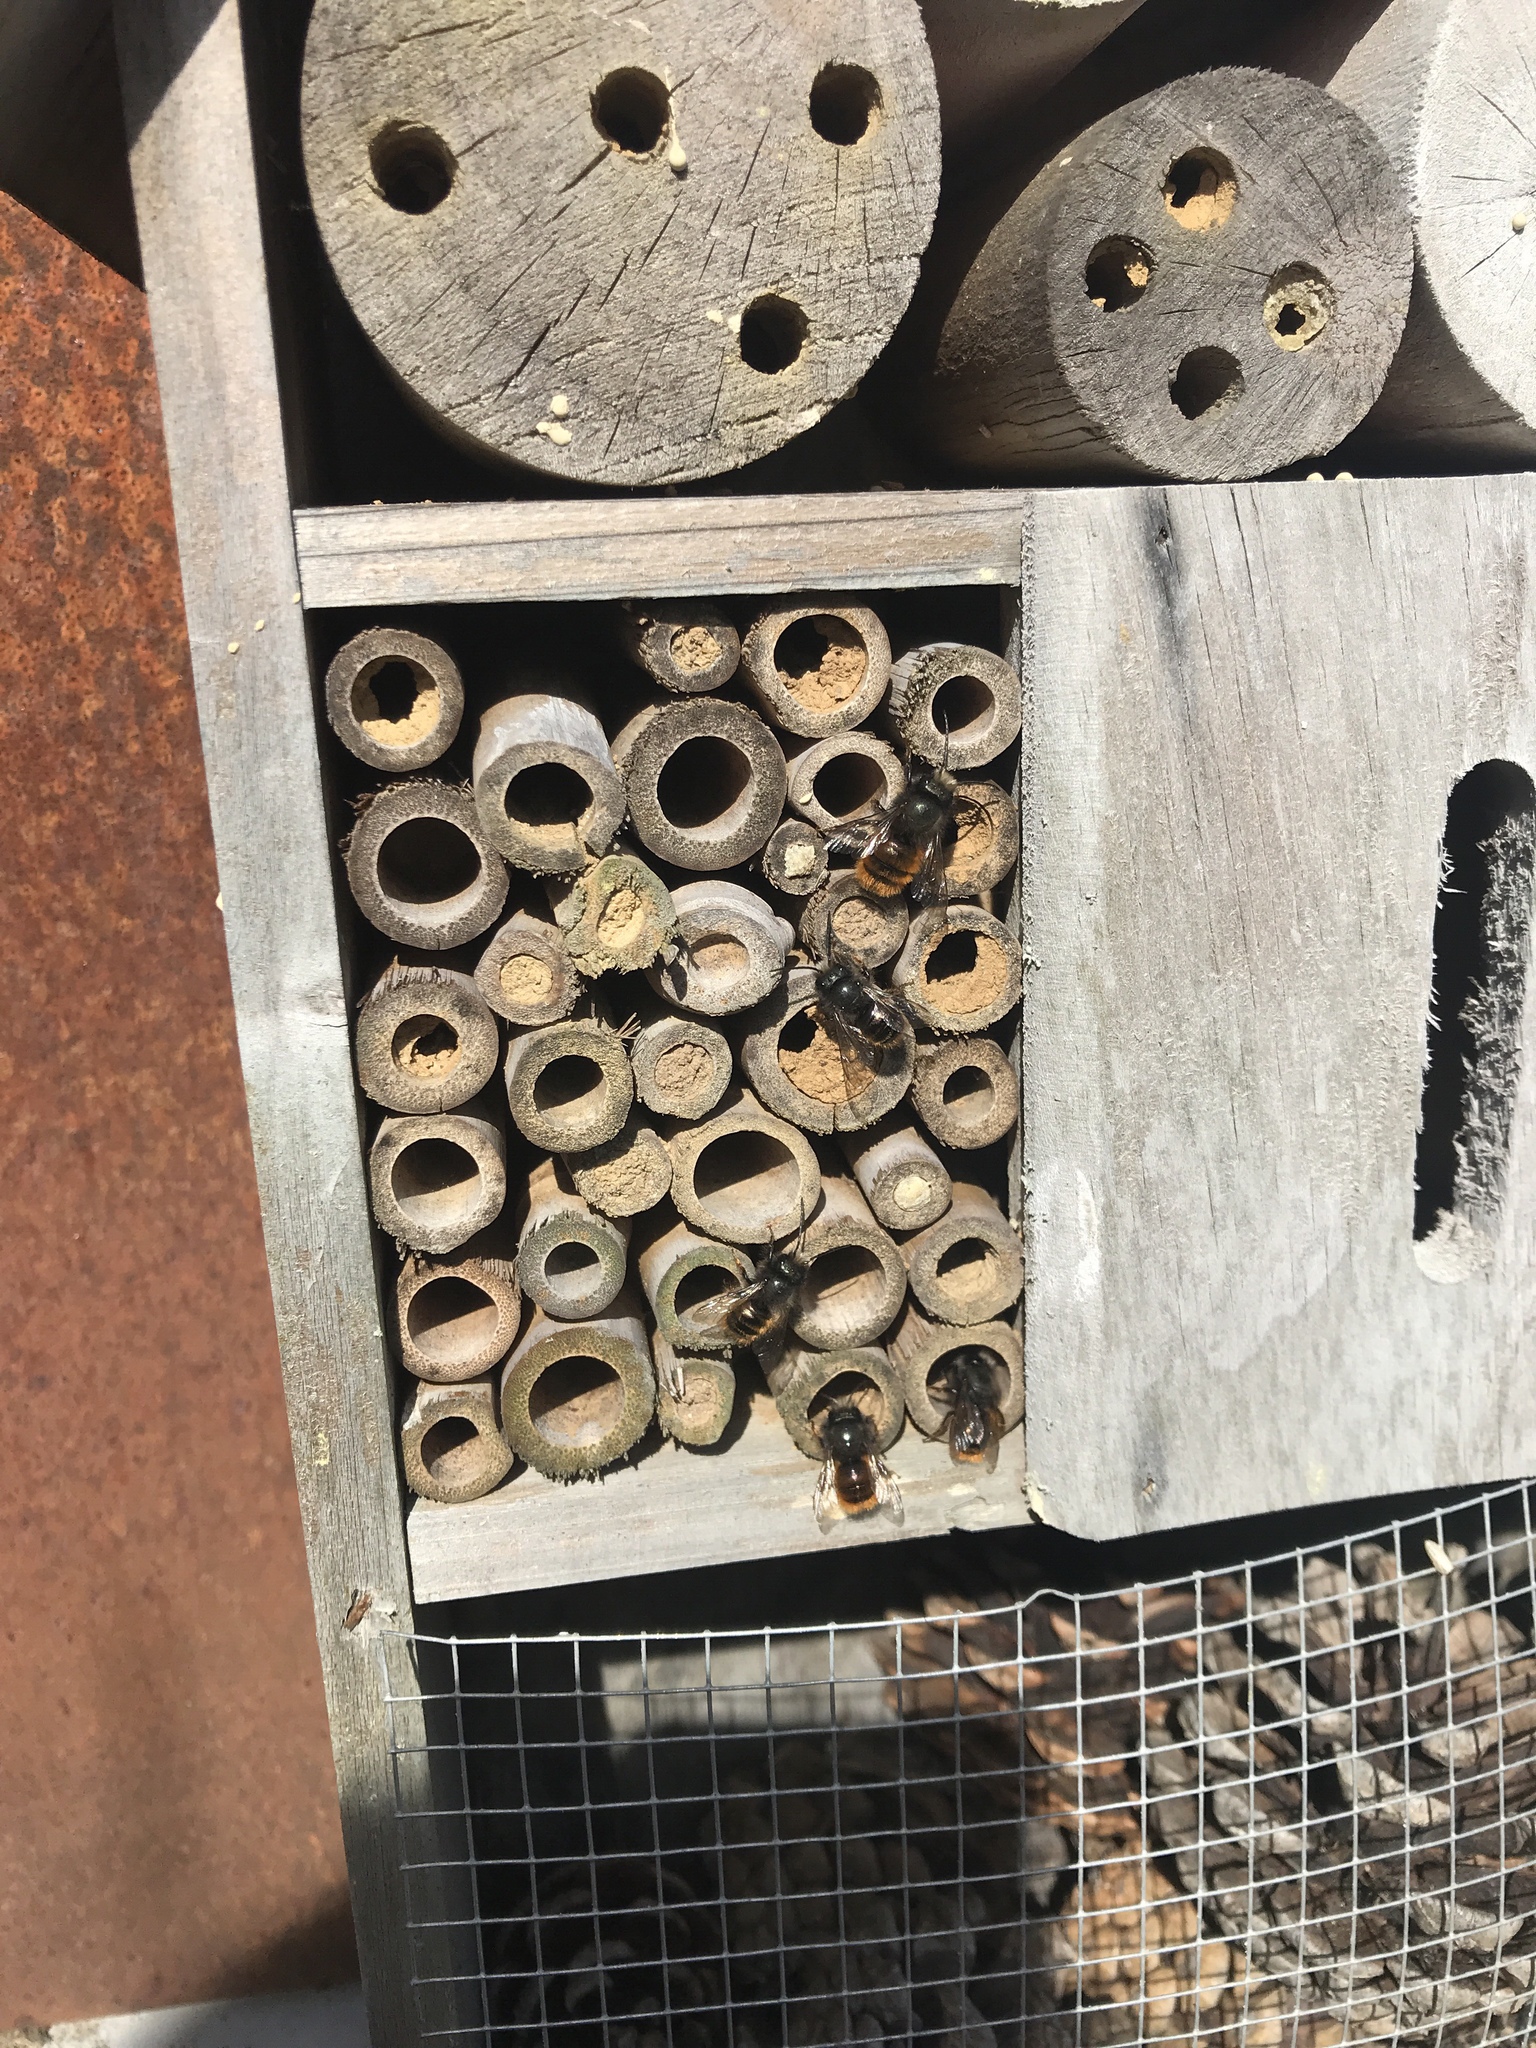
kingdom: Animalia
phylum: Arthropoda
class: Insecta
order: Hymenoptera
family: Megachilidae
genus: Osmia
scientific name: Osmia cornuta
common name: Mason bee
